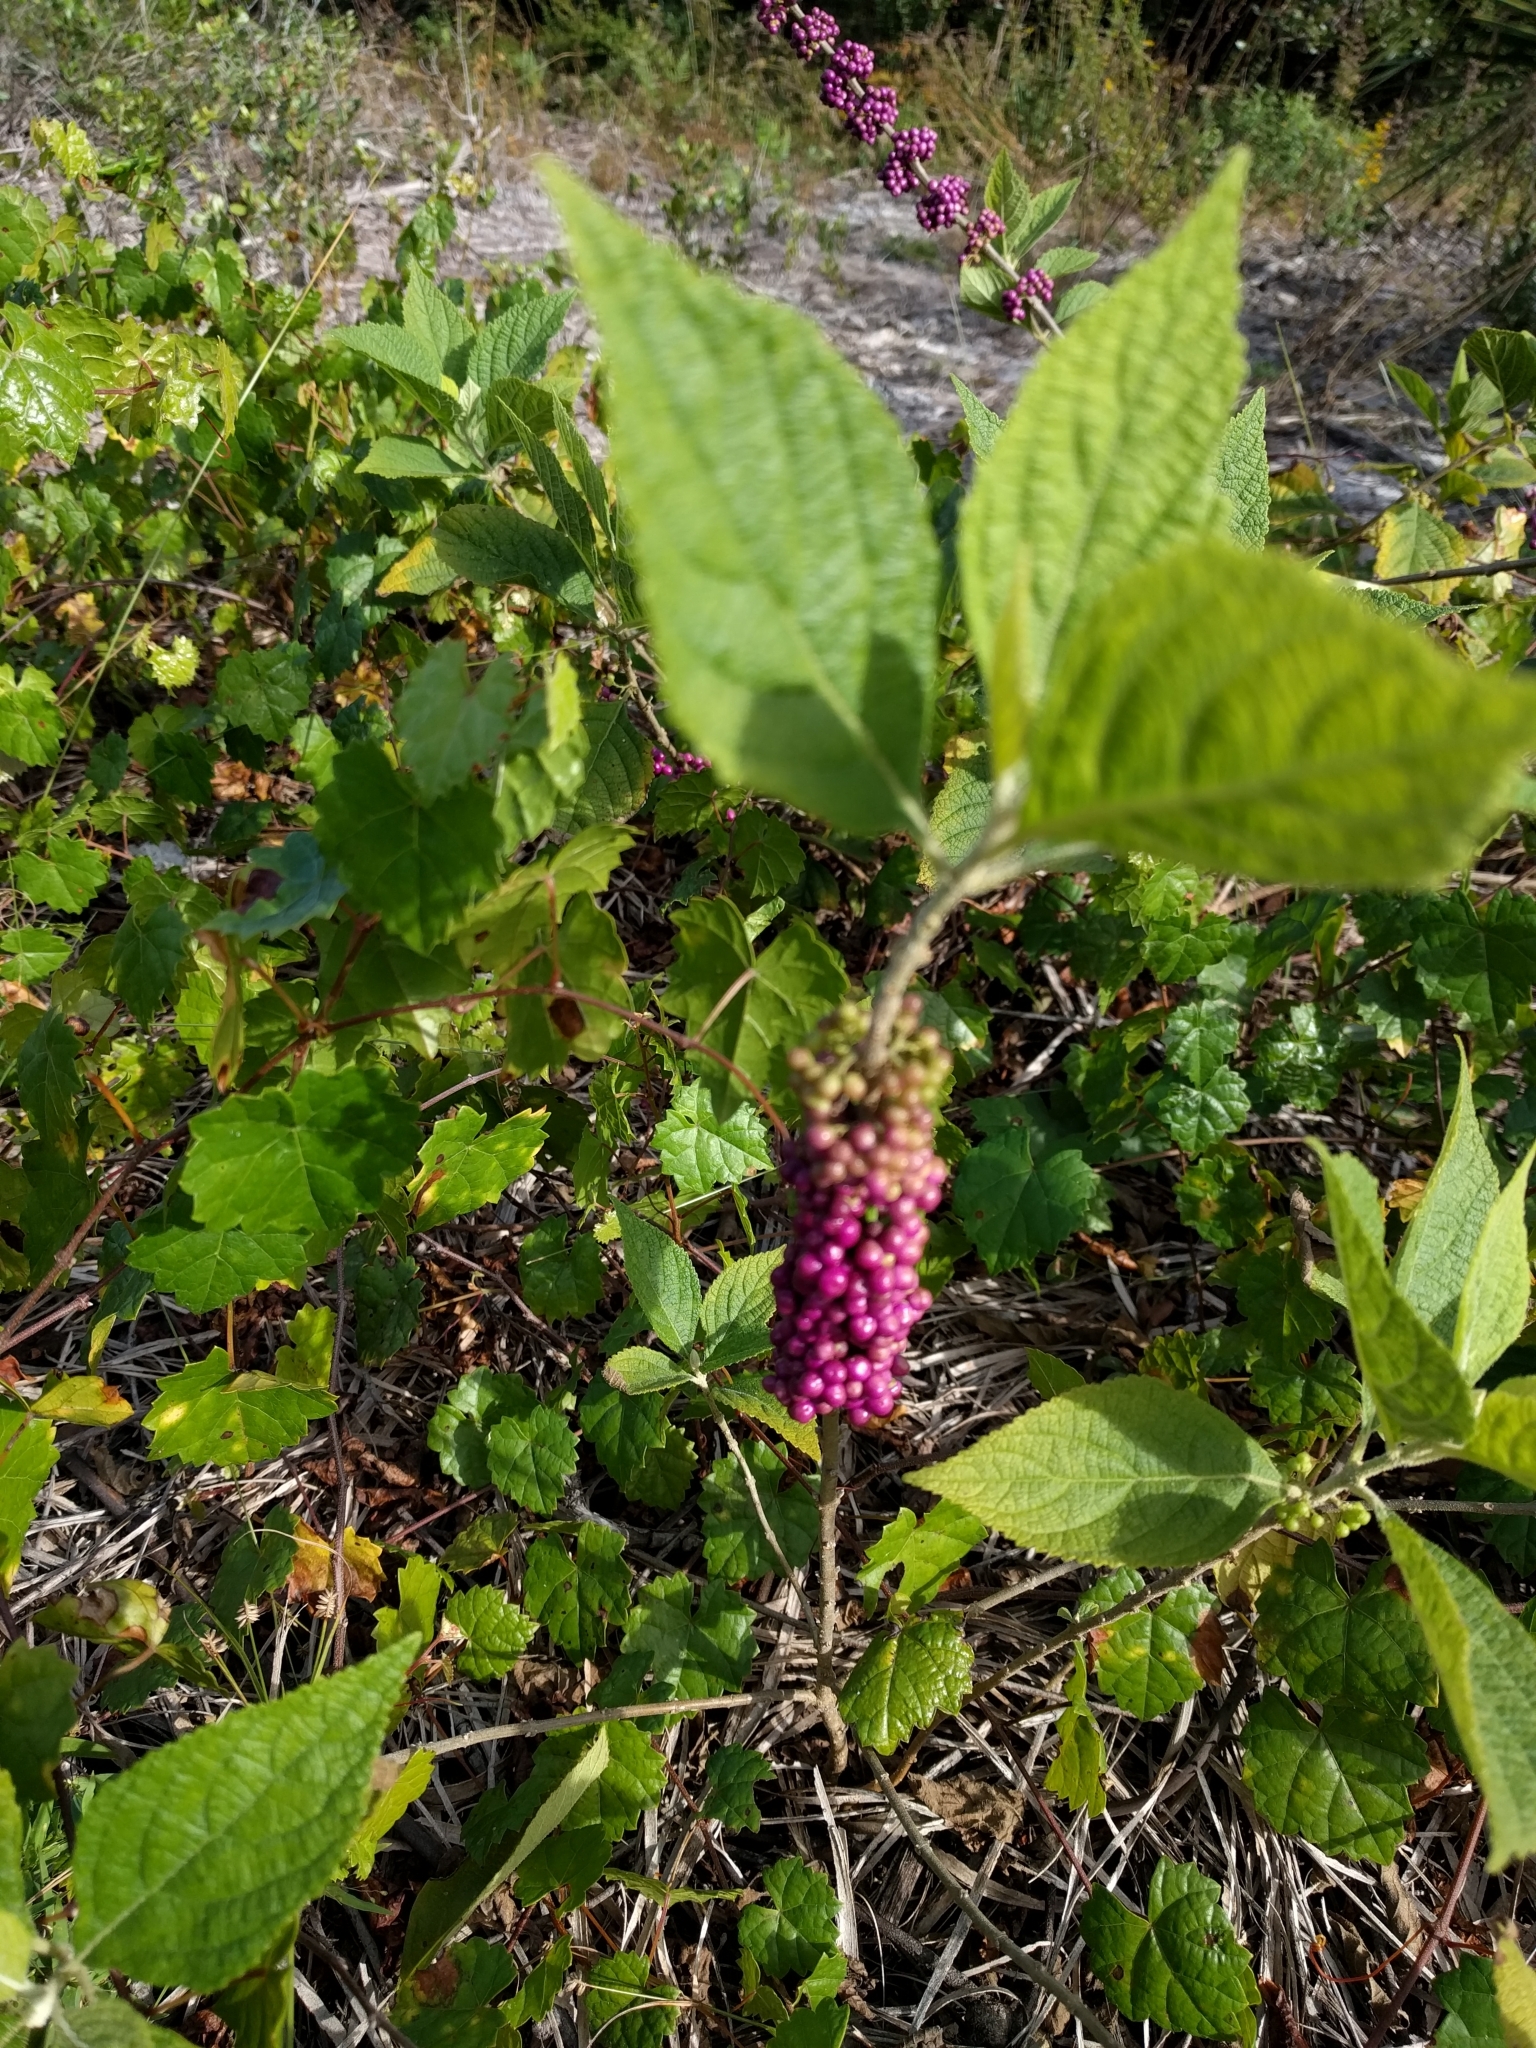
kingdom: Plantae
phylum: Tracheophyta
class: Magnoliopsida
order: Lamiales
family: Lamiaceae
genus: Callicarpa
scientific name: Callicarpa americana
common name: American beautyberry
